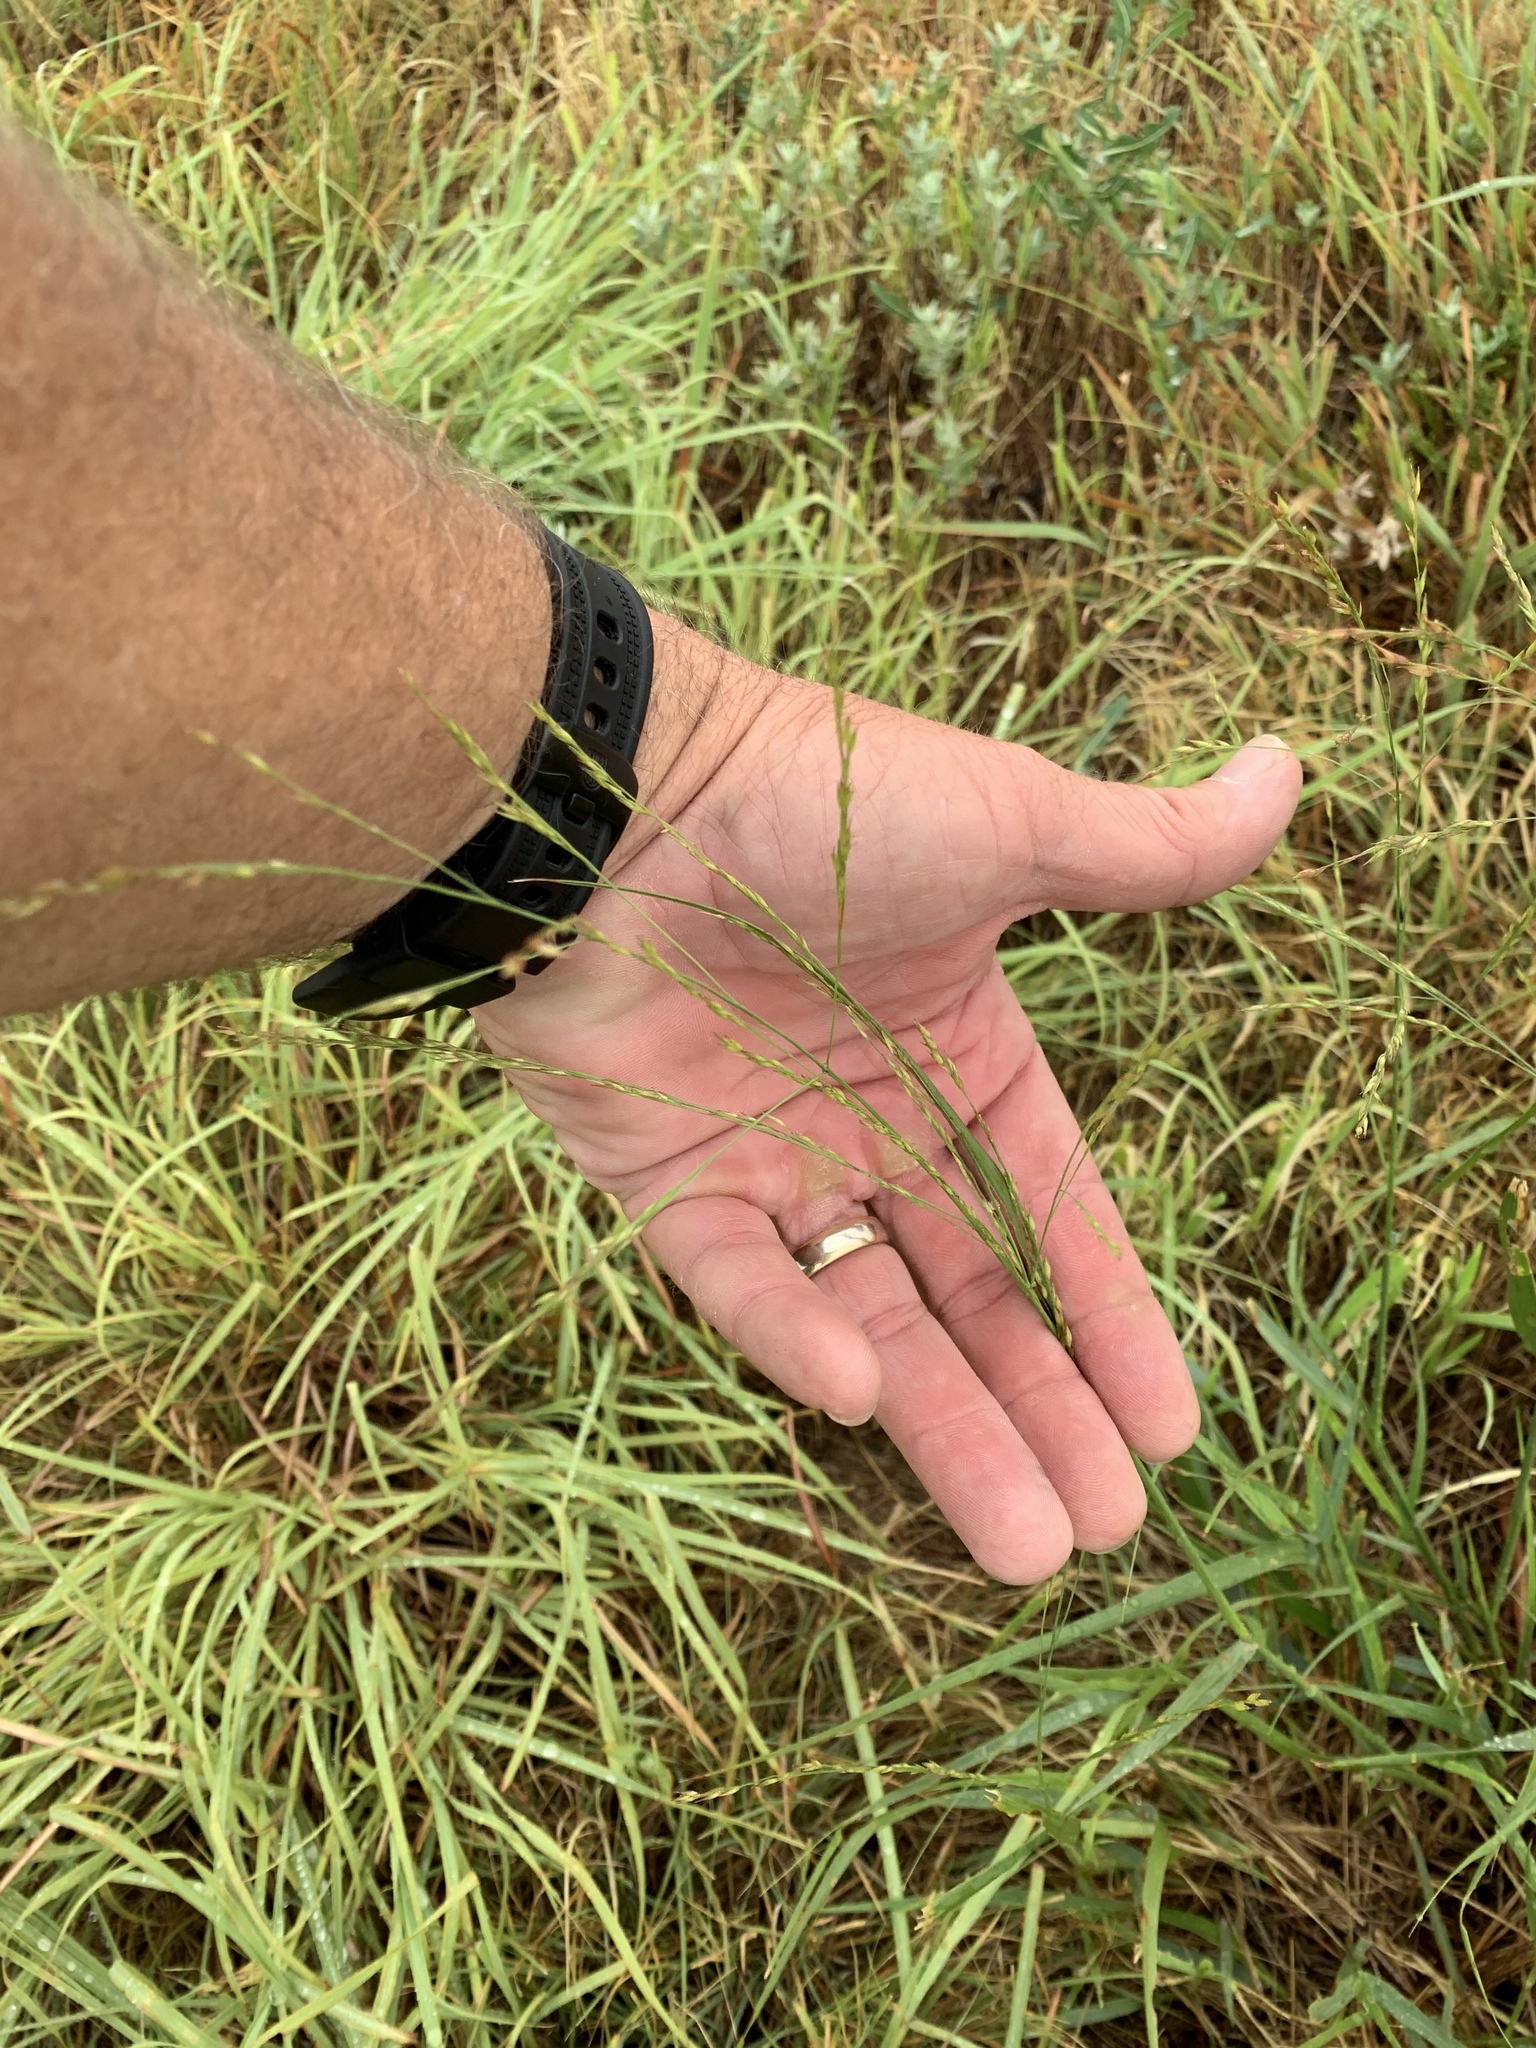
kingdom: Plantae
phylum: Tracheophyta
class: Liliopsida
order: Poales
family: Poaceae
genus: Panicum
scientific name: Panicum virgatum
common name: Switchgrass
